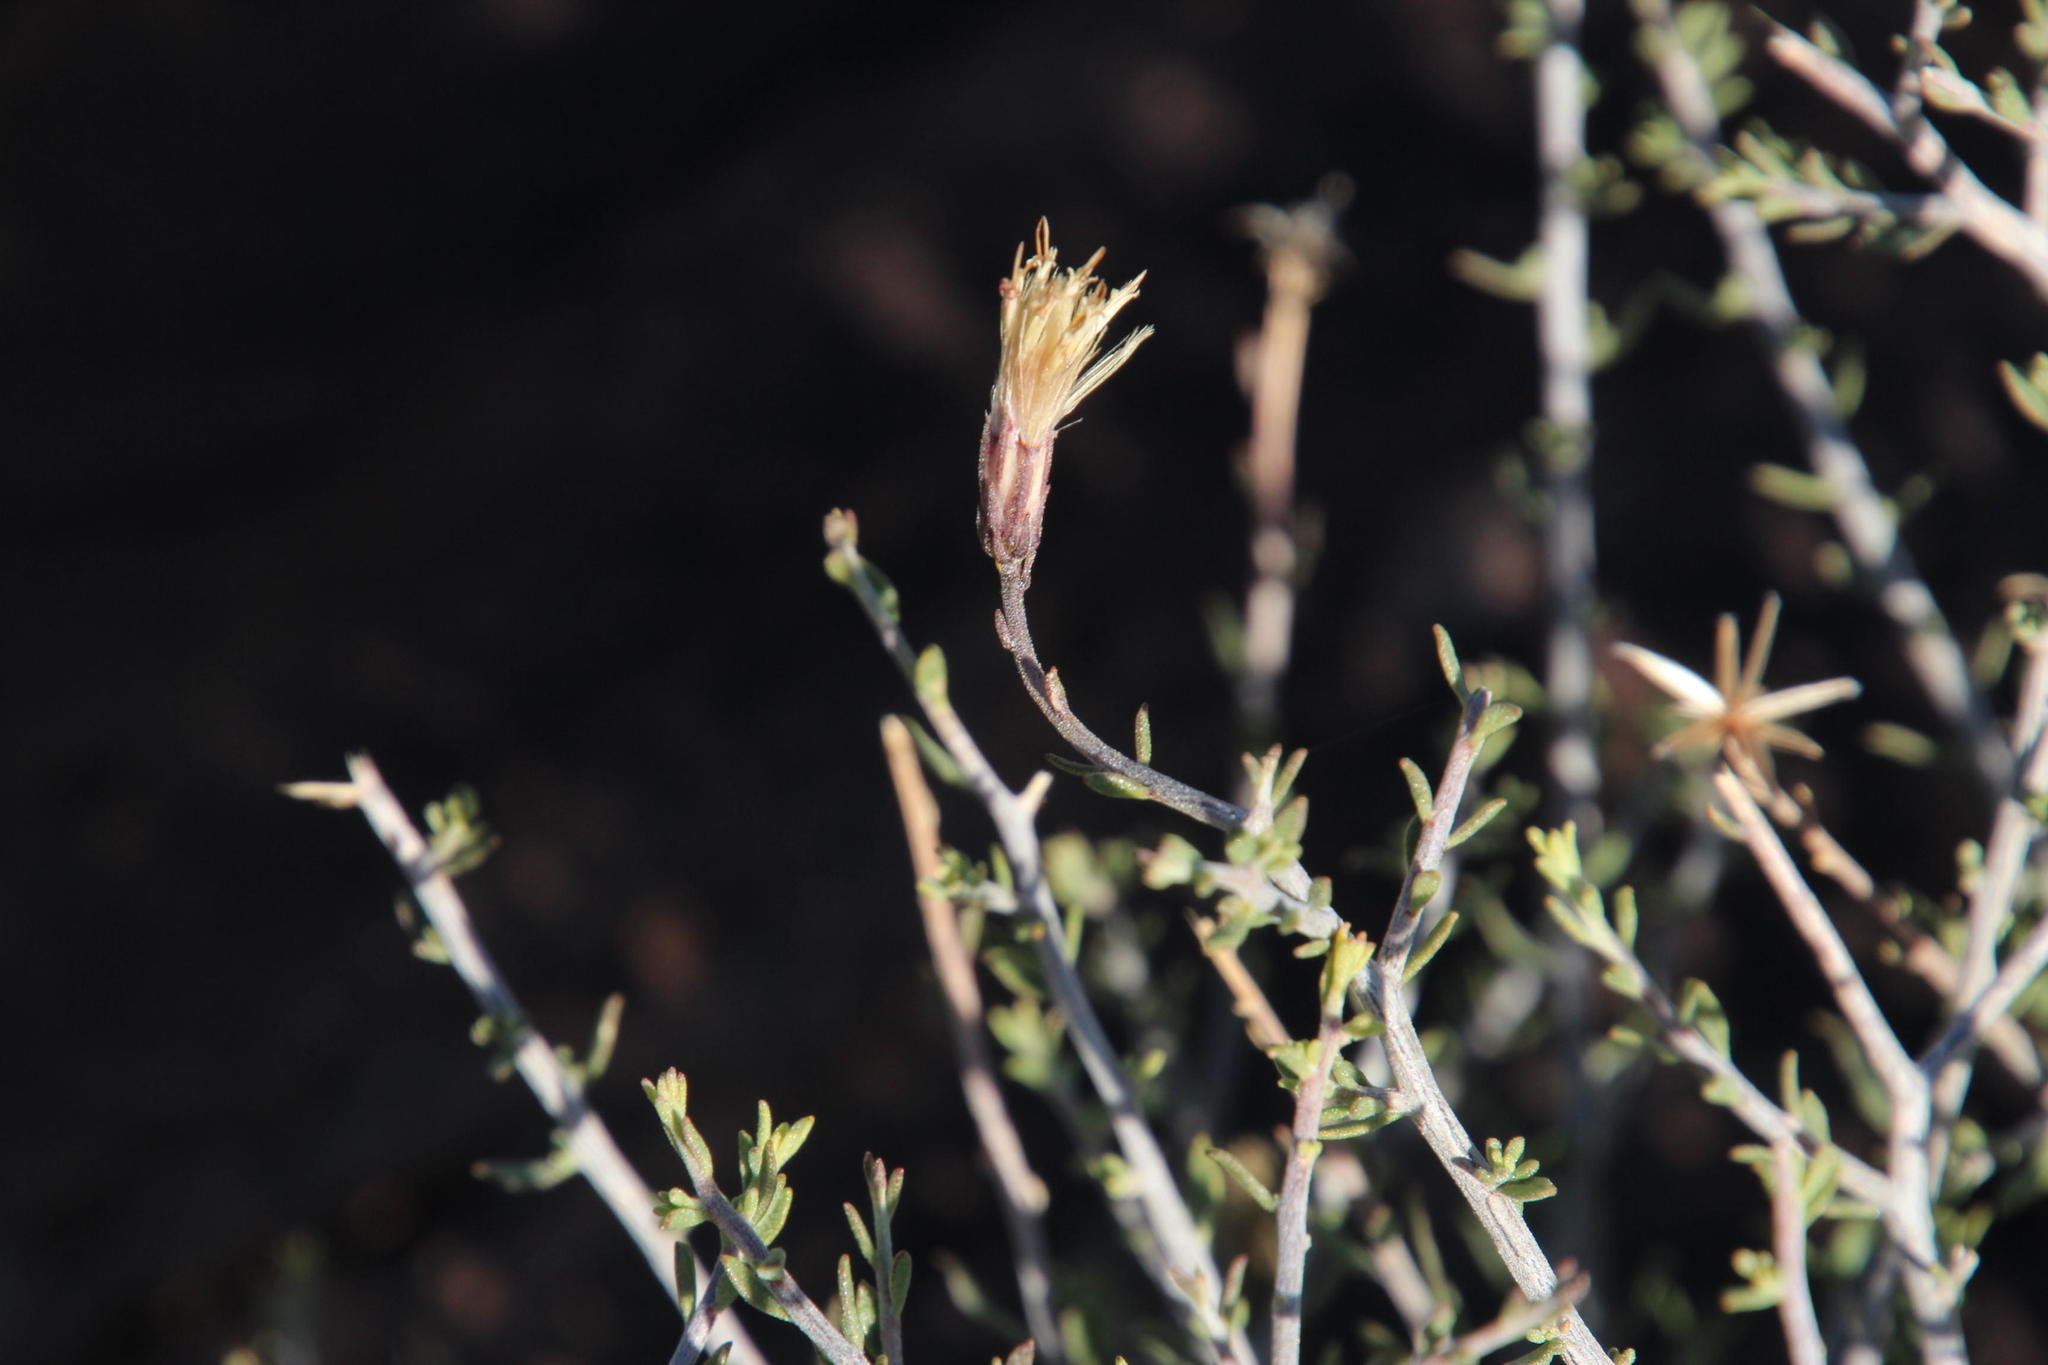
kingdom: Plantae
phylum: Tracheophyta
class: Magnoliopsida
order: Asterales
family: Asteraceae
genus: Pegolettia
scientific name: Pegolettia retrofracta
